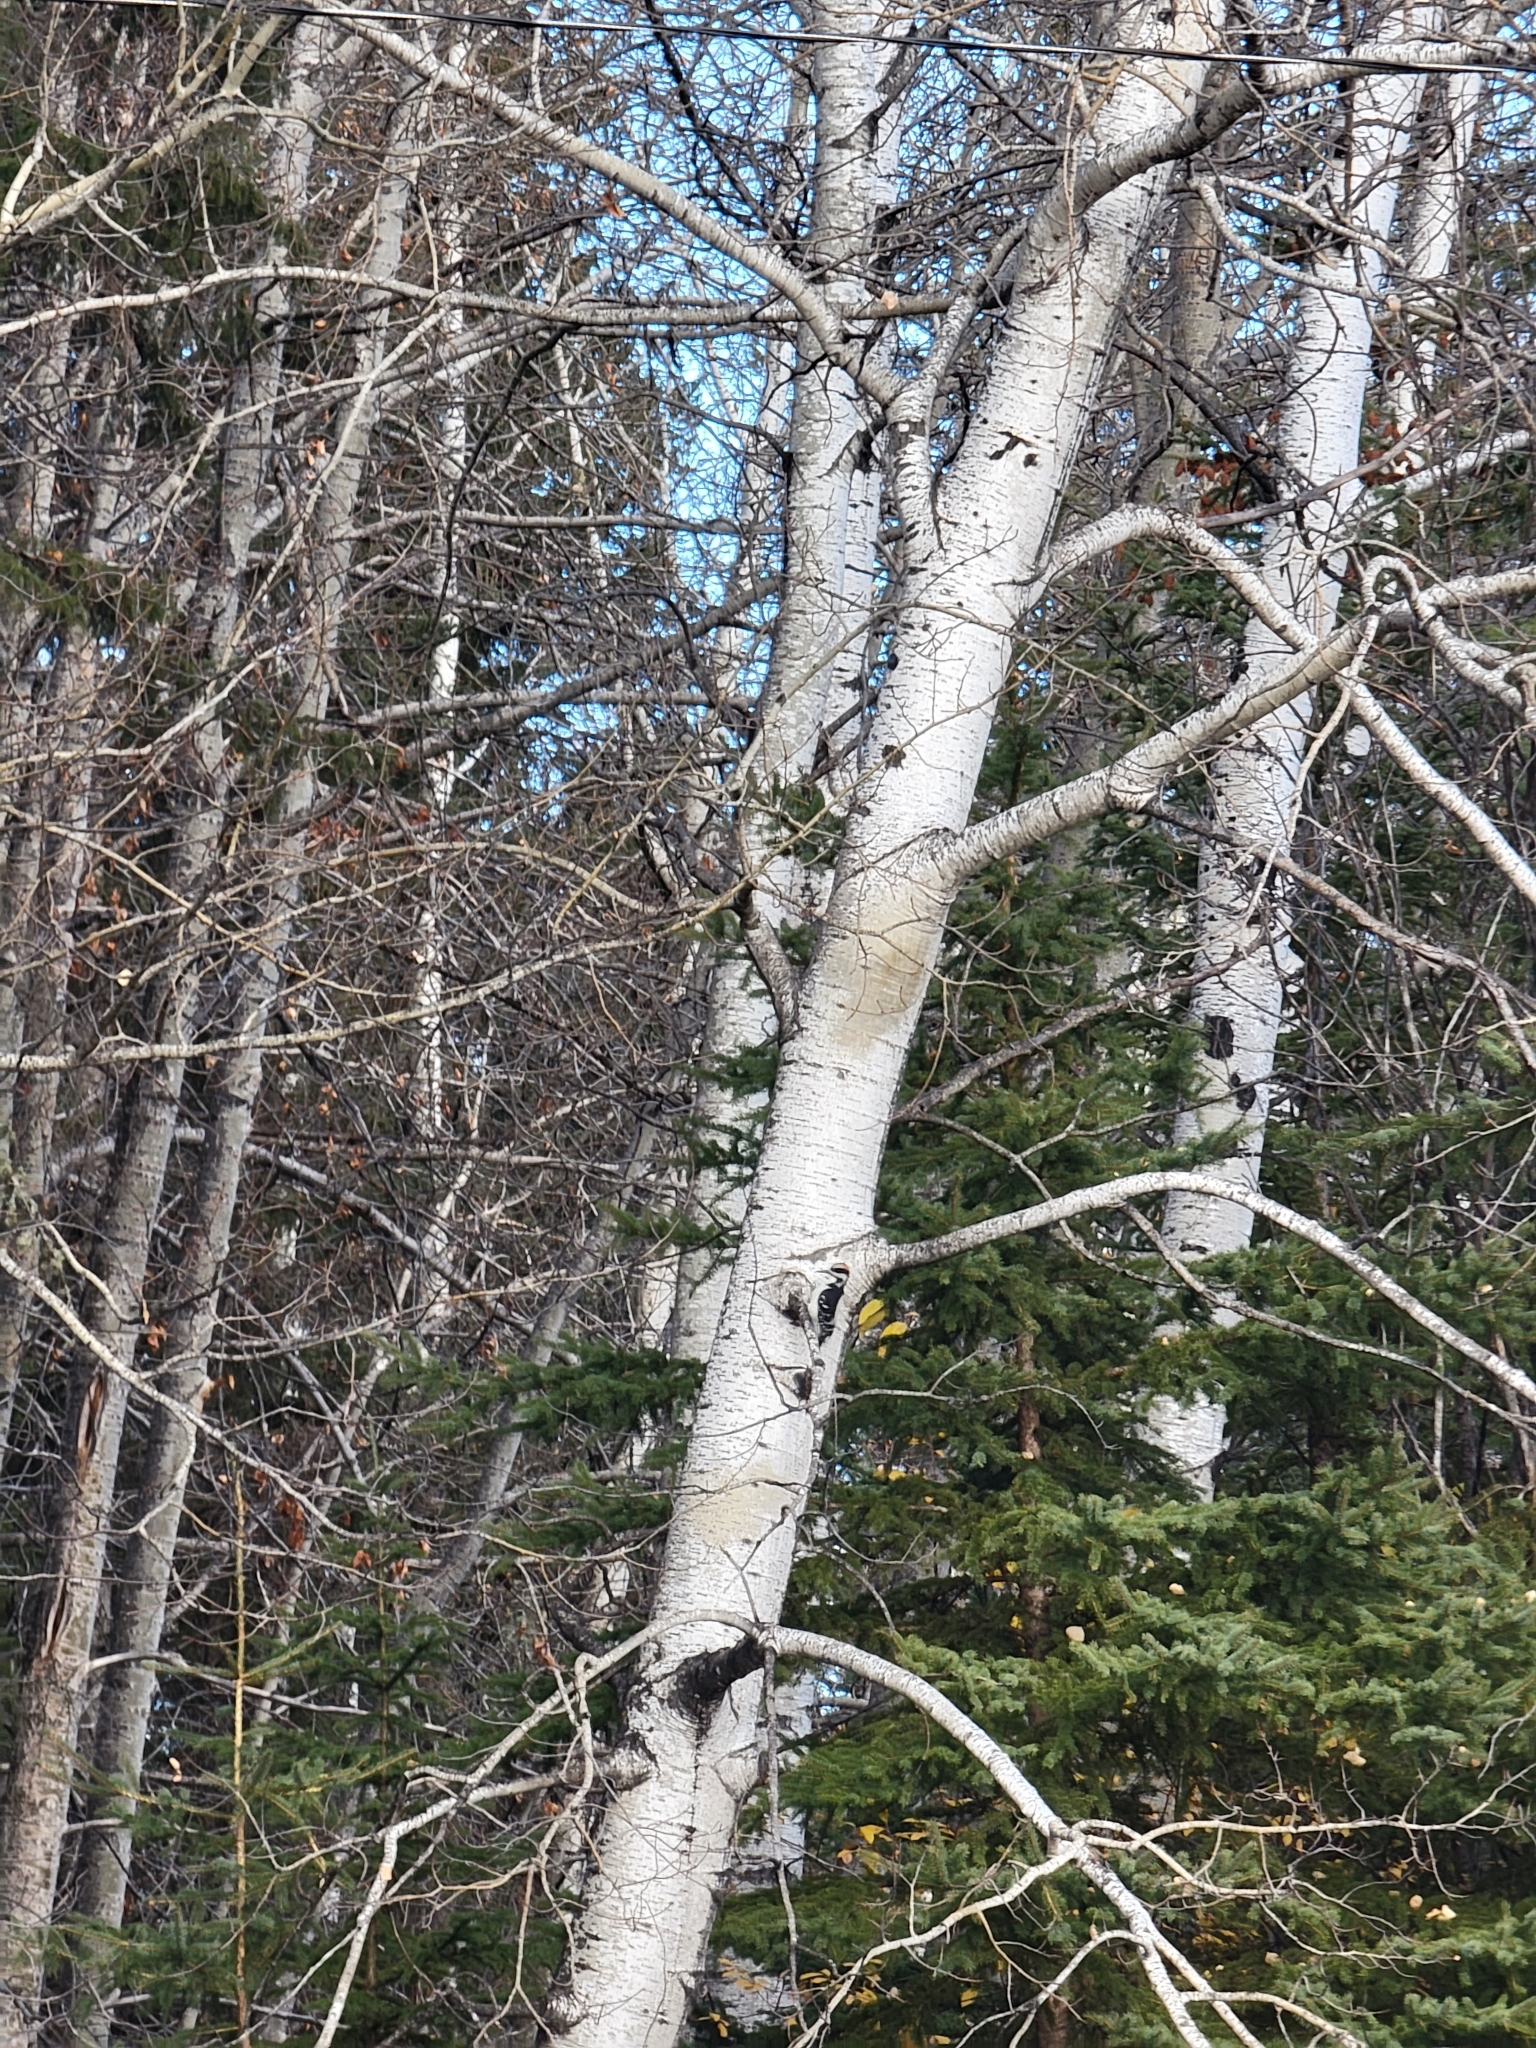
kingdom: Animalia
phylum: Chordata
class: Aves
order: Piciformes
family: Picidae
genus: Leuconotopicus
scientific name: Leuconotopicus villosus
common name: Hairy woodpecker
